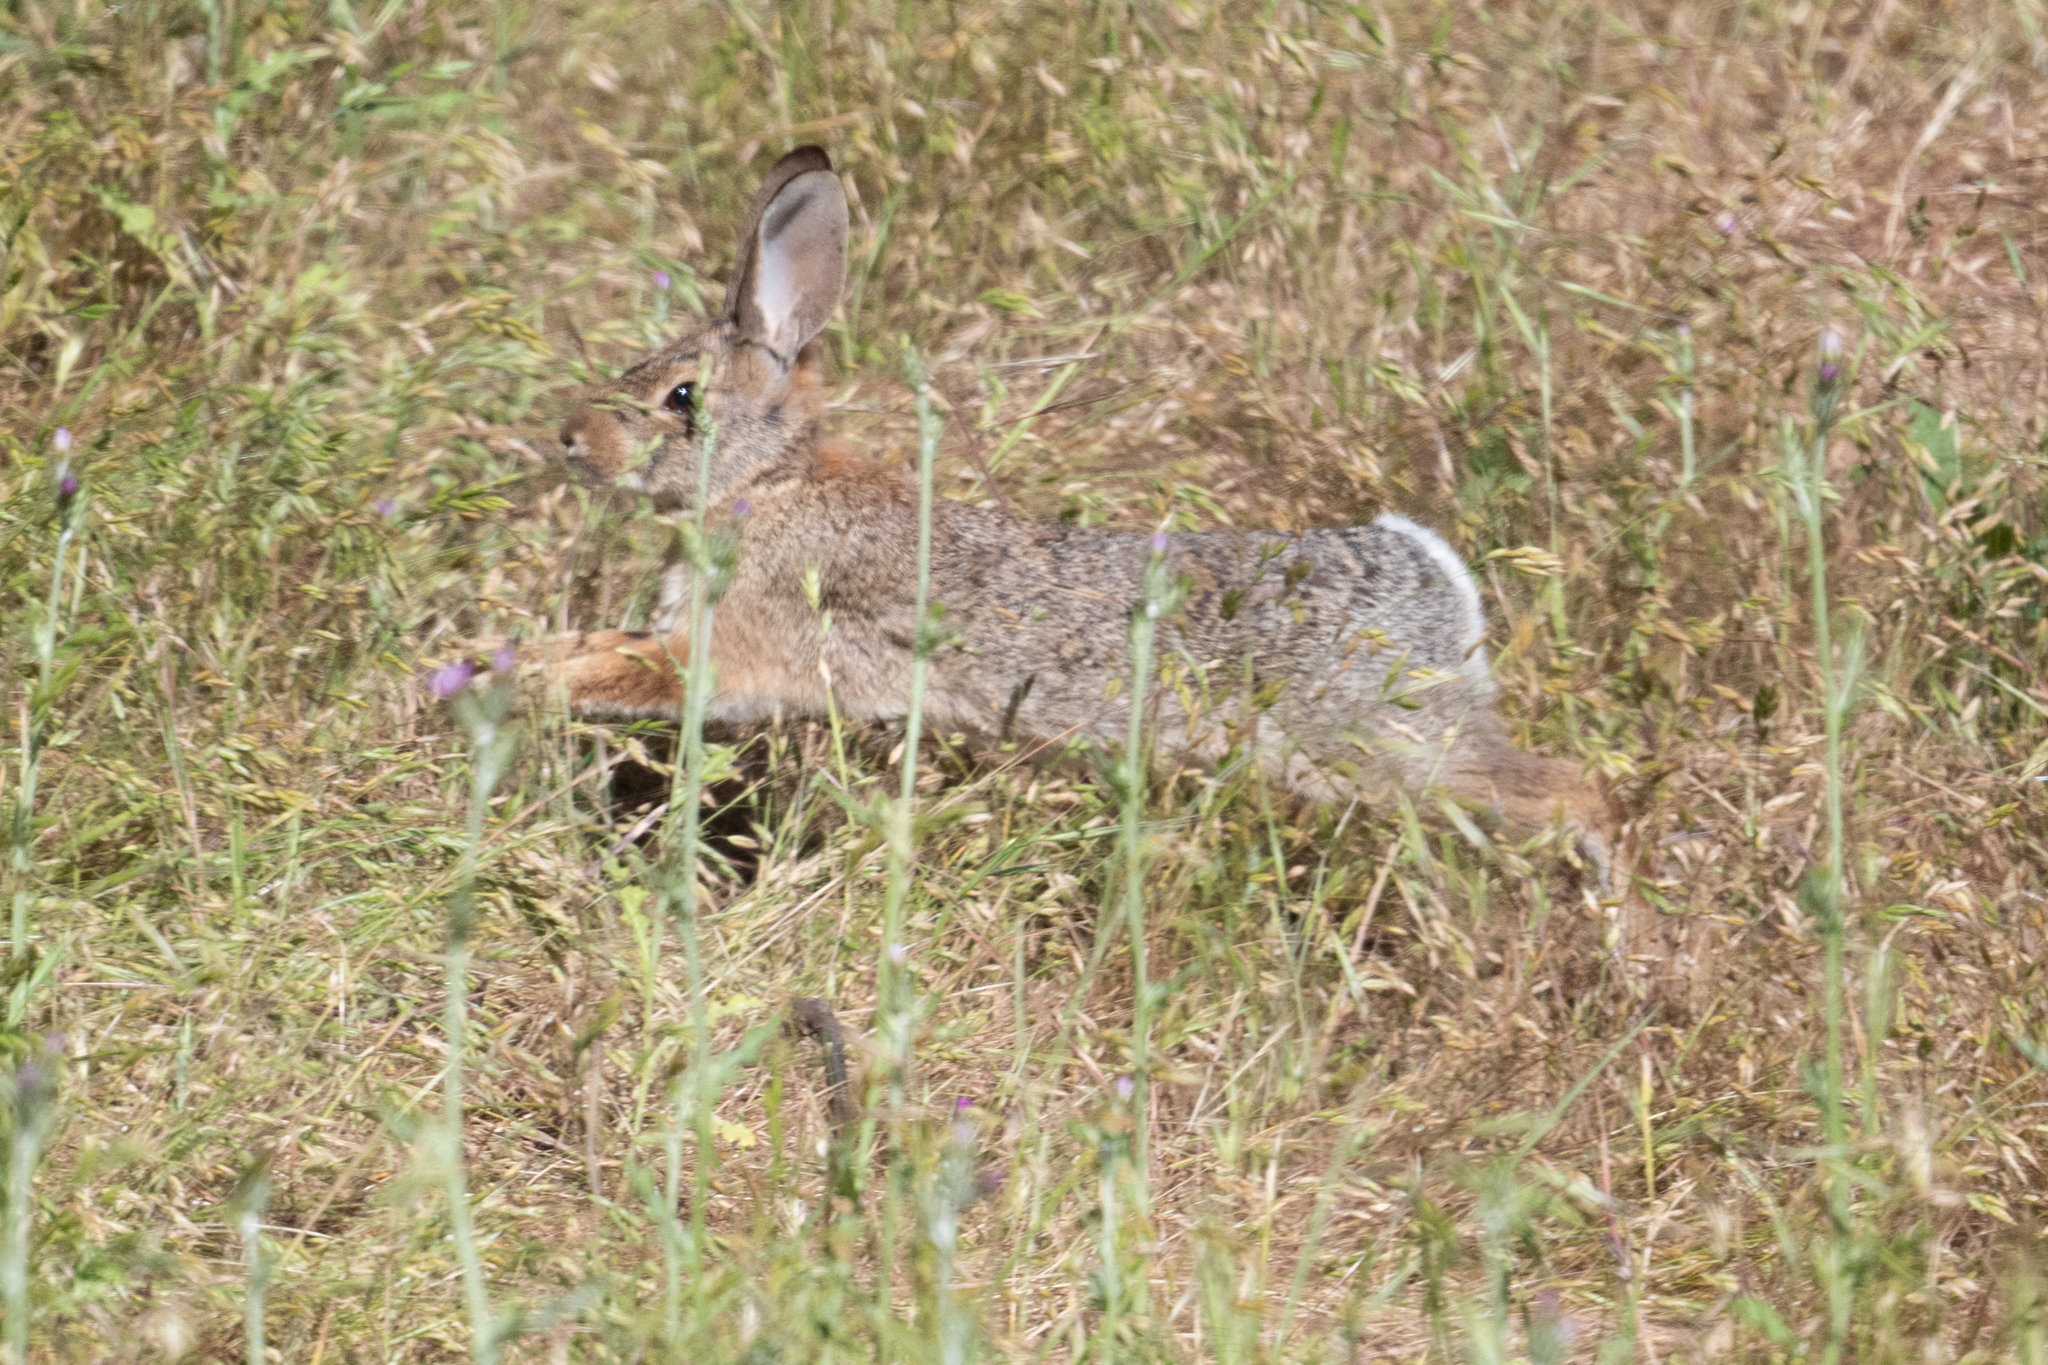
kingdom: Animalia
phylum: Chordata
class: Mammalia
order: Lagomorpha
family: Leporidae
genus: Sylvilagus
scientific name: Sylvilagus audubonii
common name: Desert cottontail
